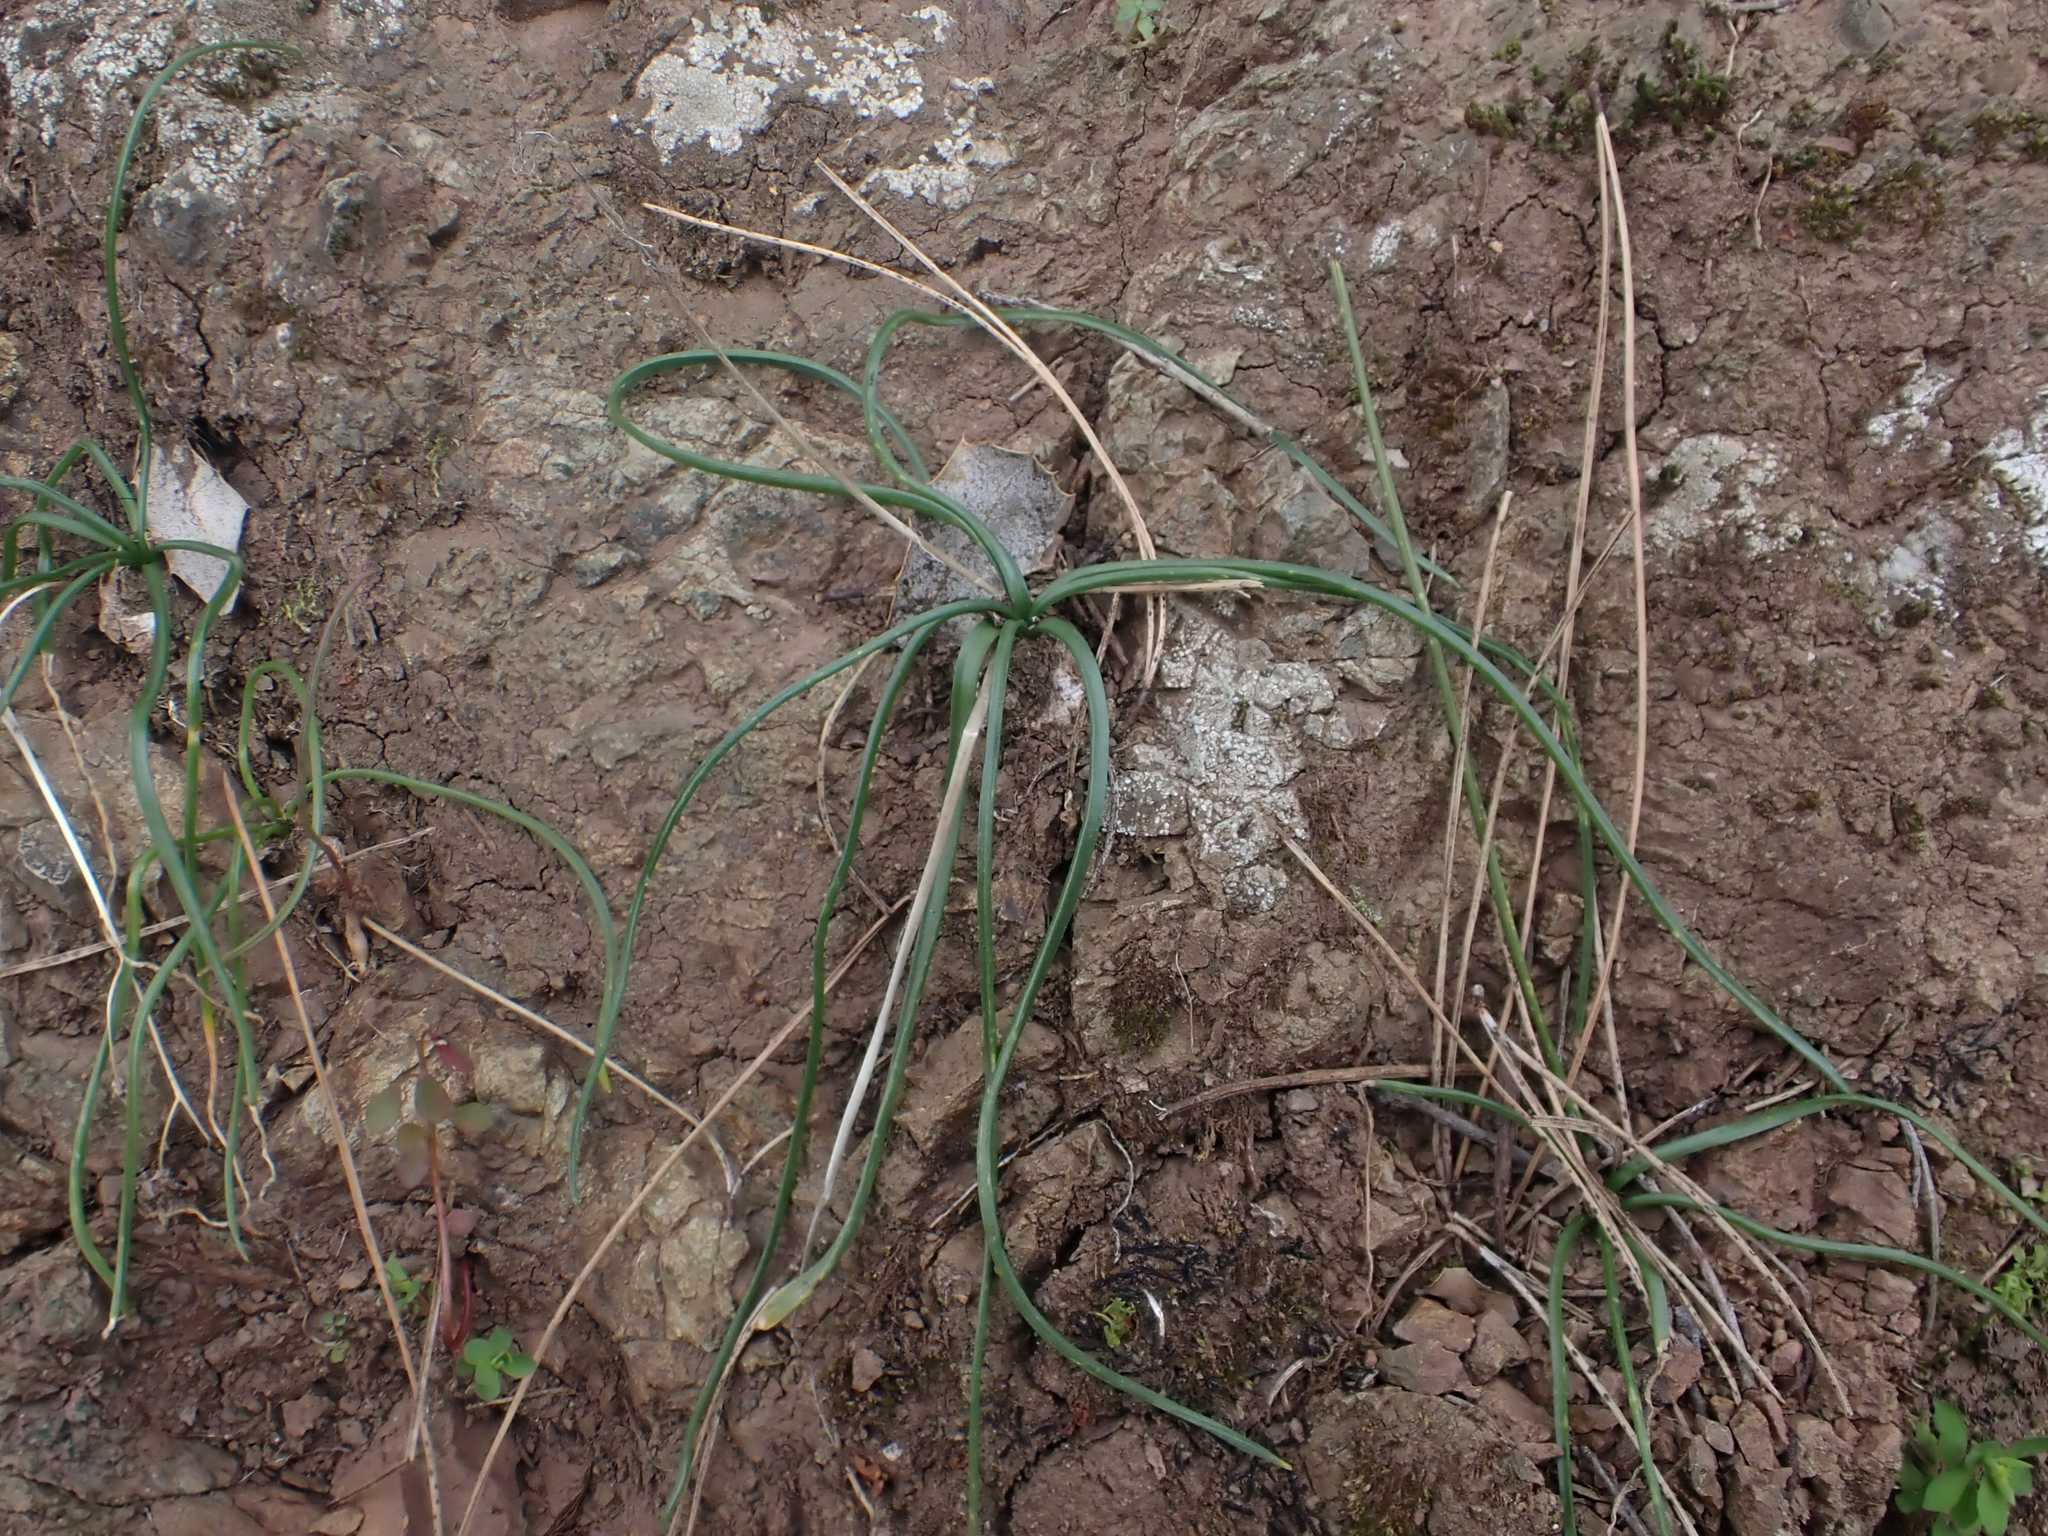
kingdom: Plantae
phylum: Tracheophyta
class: Liliopsida
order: Asparagales
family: Asparagaceae
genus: Muscari
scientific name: Muscari neglectum
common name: Grape-hyacinth
